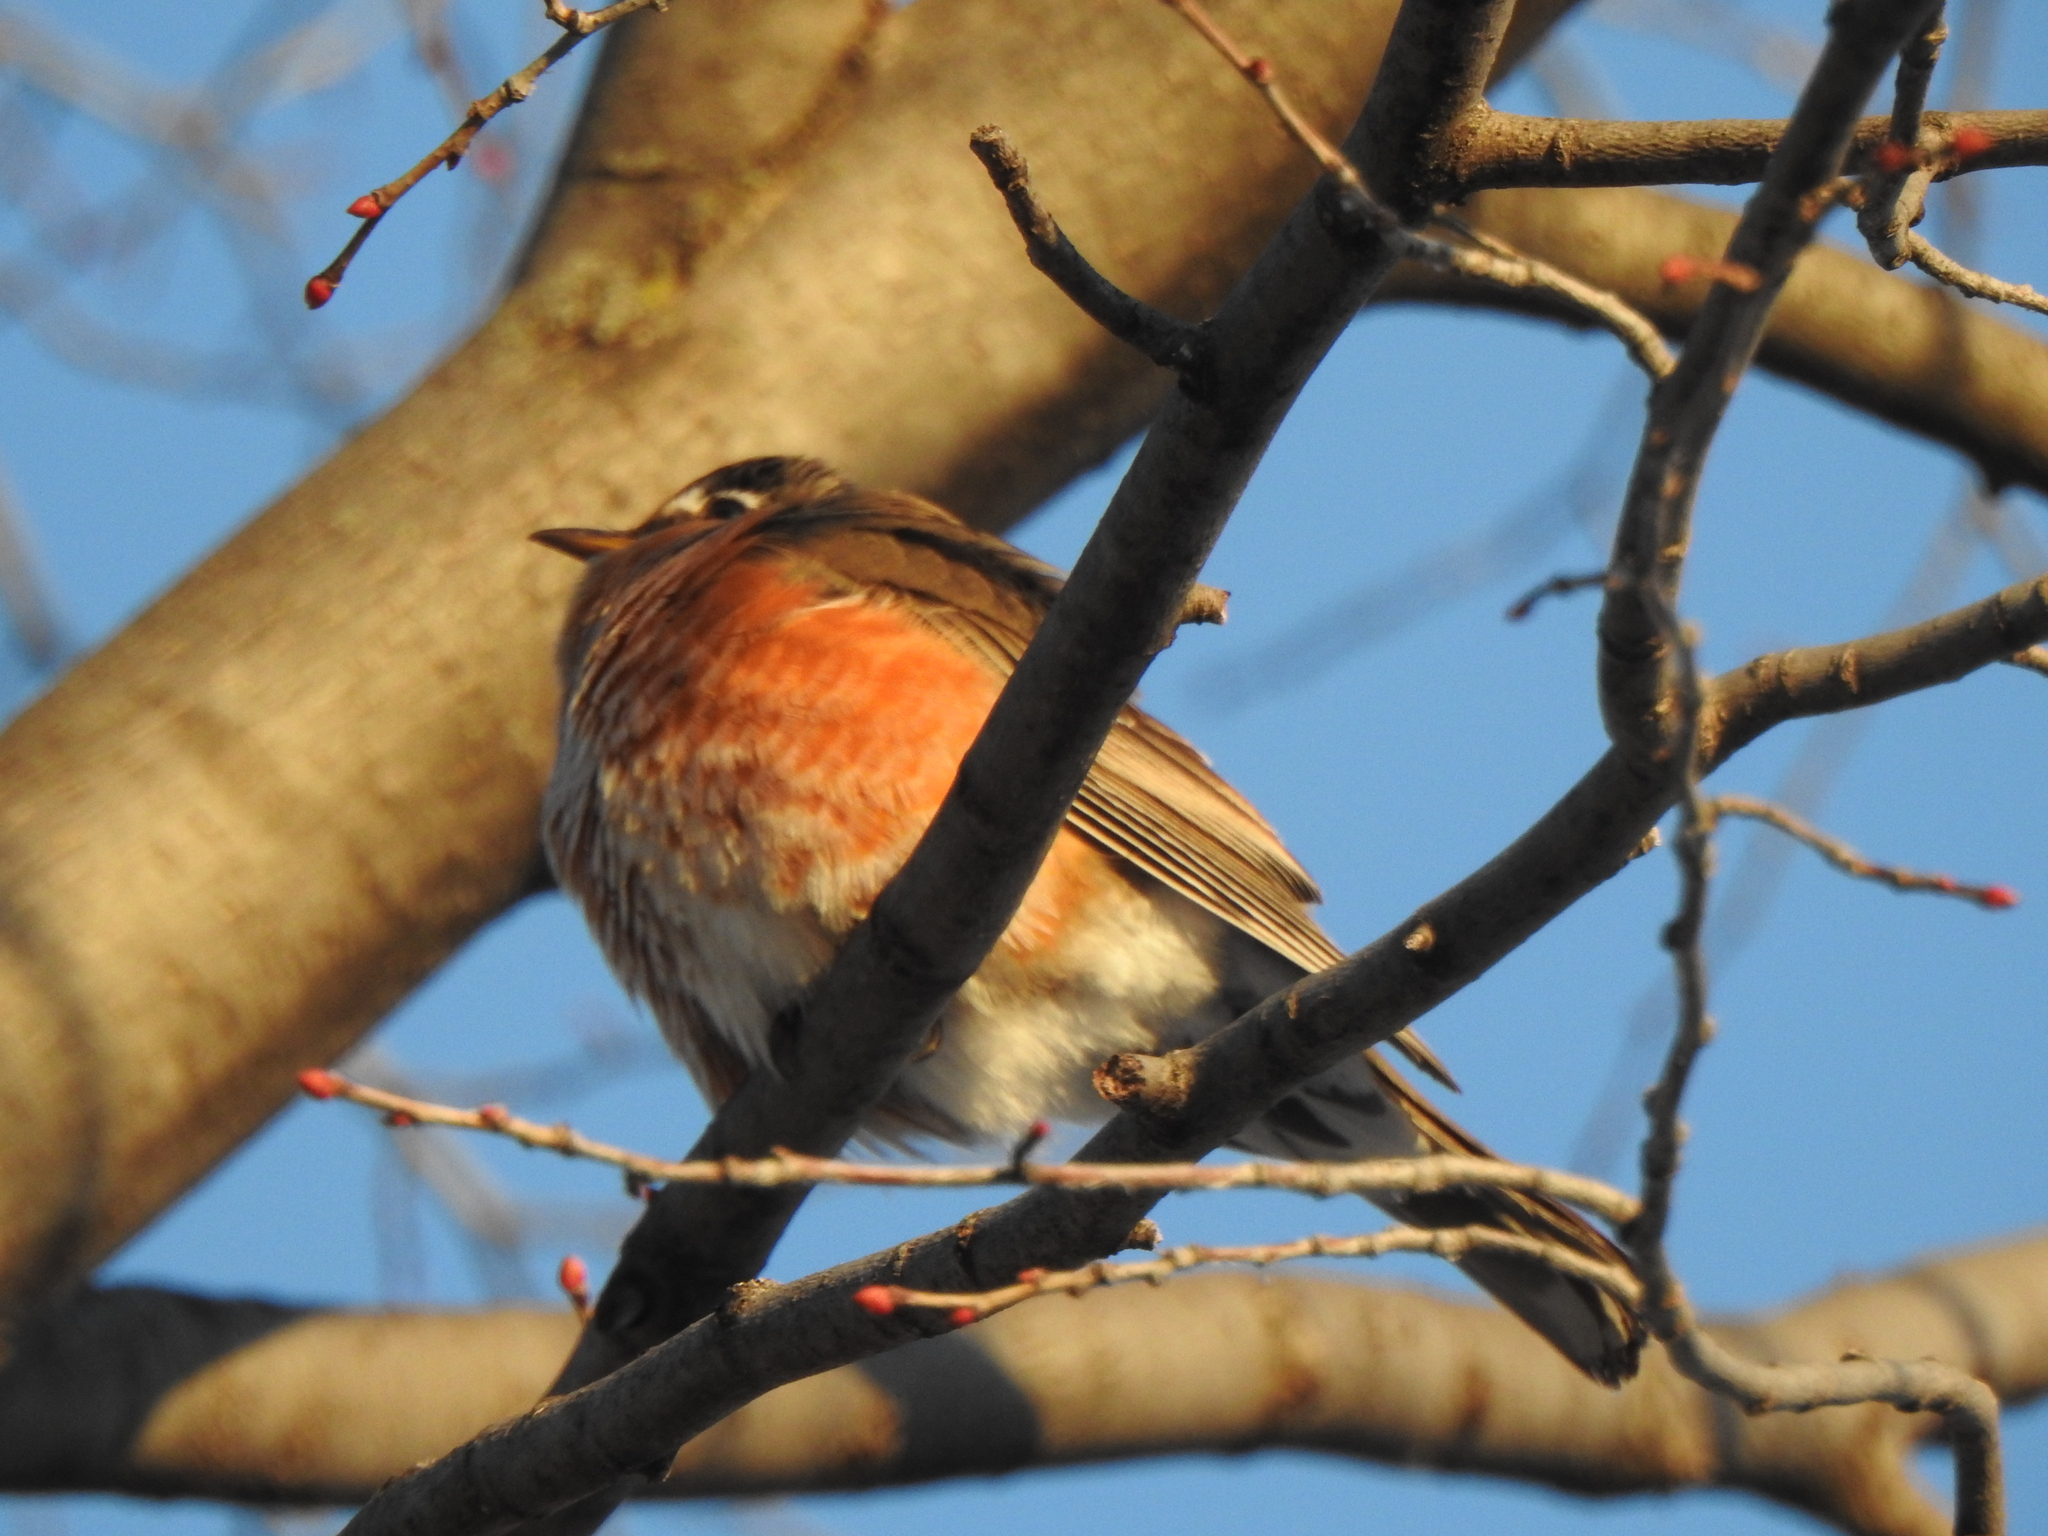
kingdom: Animalia
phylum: Chordata
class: Aves
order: Passeriformes
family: Turdidae
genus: Turdus
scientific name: Turdus migratorius
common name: American robin
